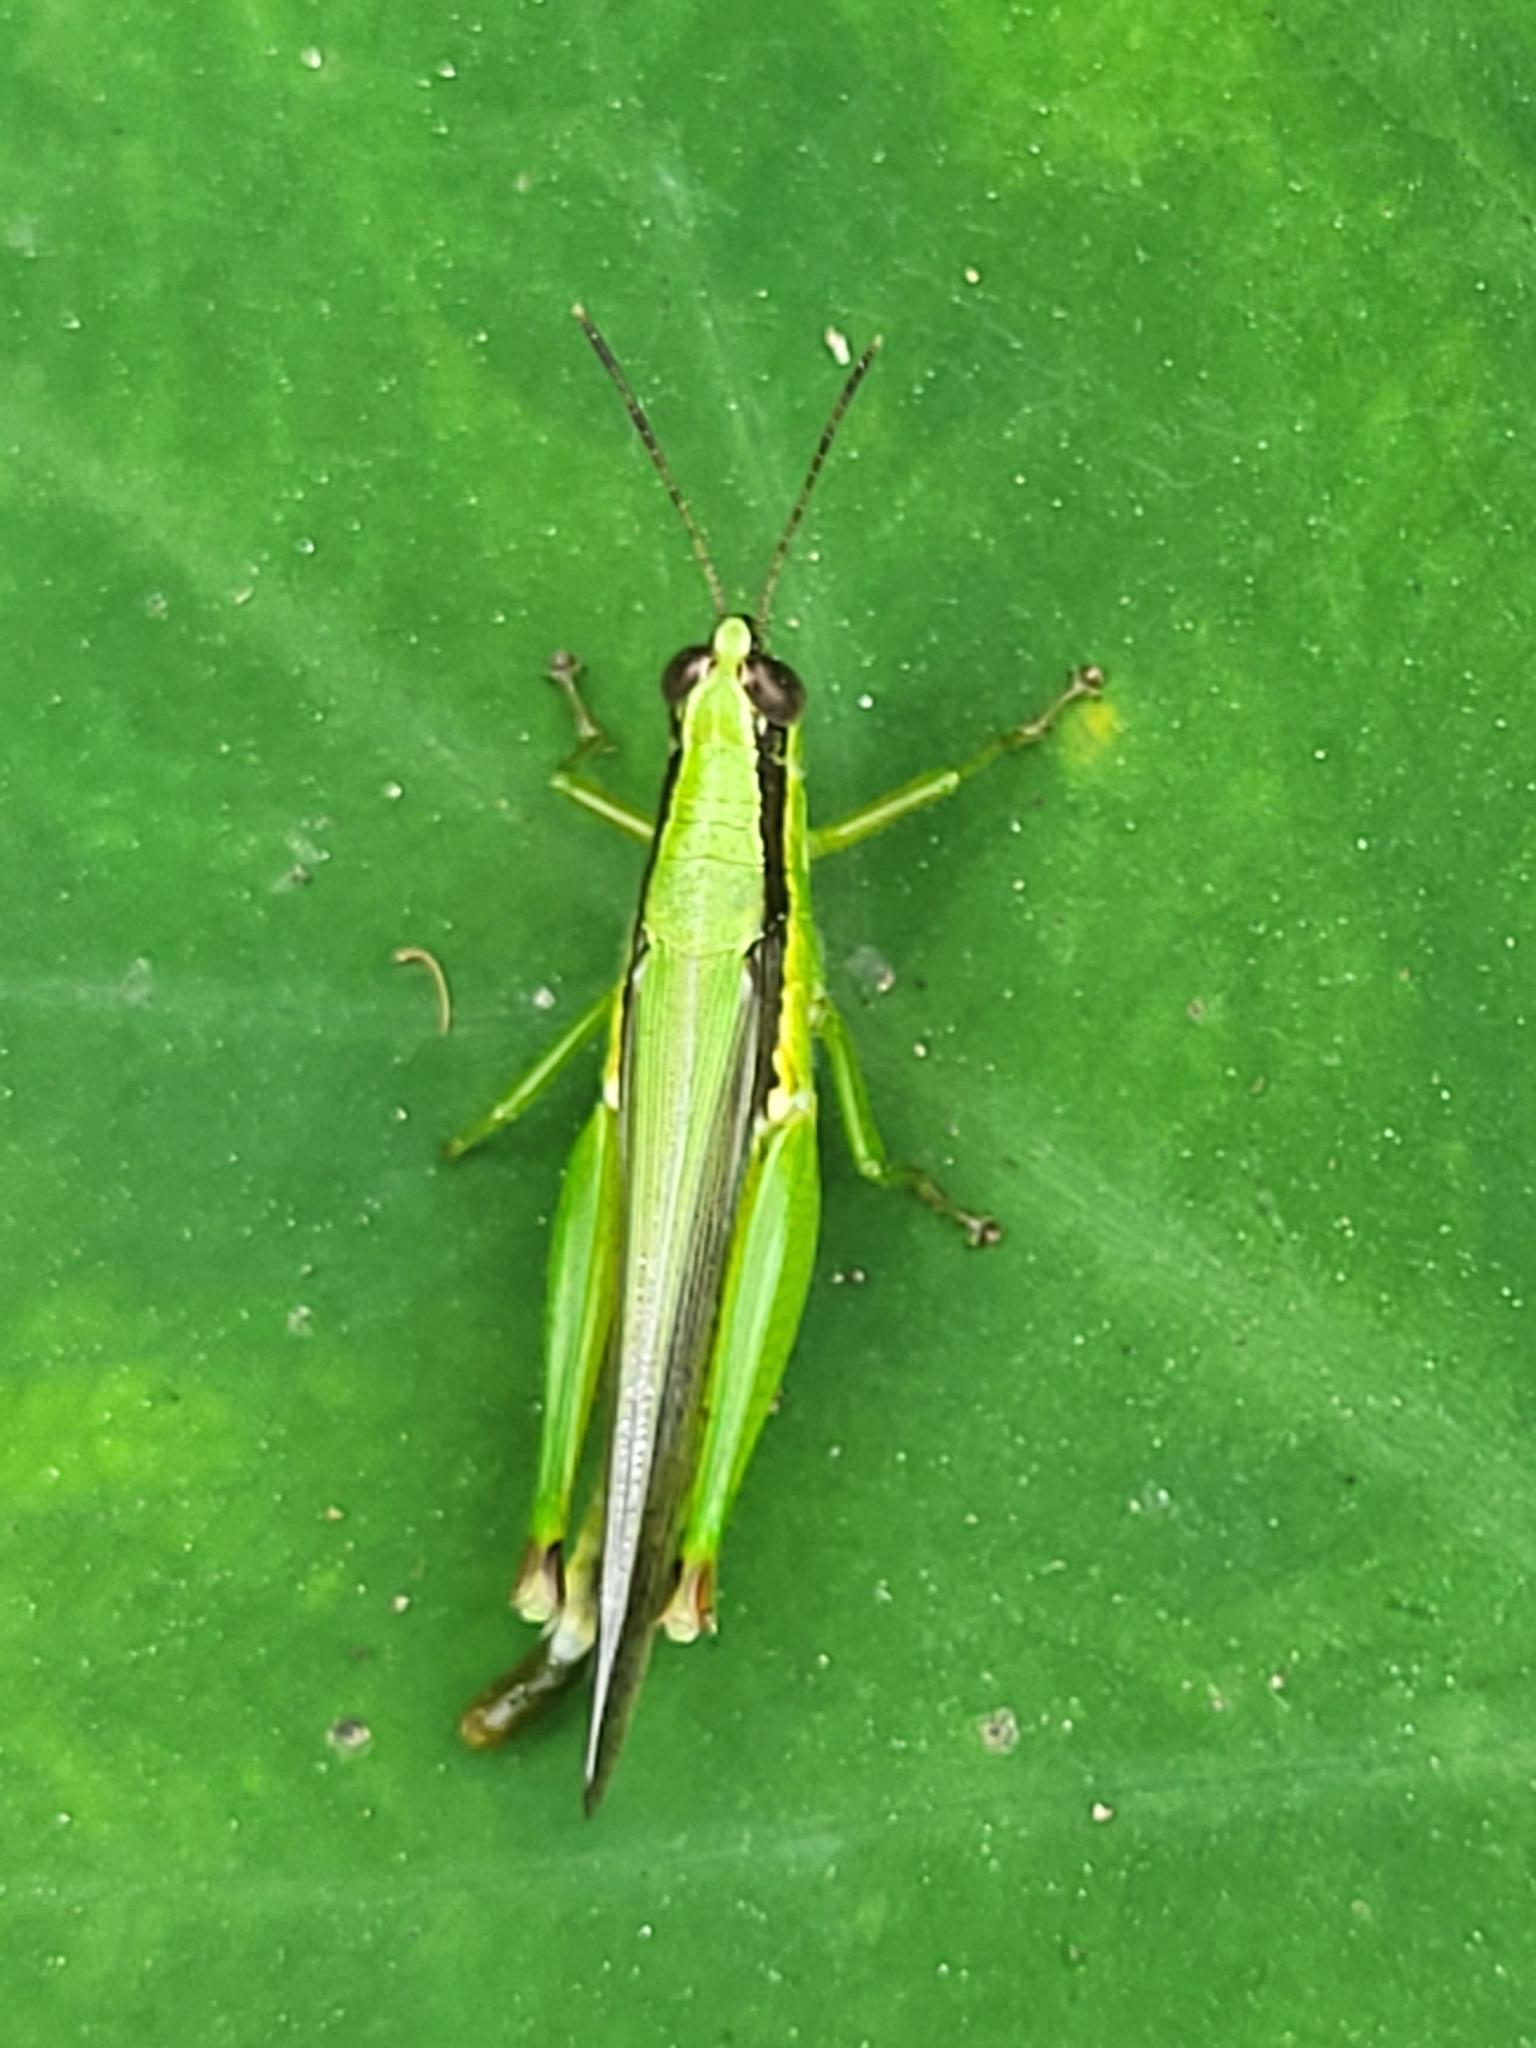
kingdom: Animalia
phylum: Arthropoda
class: Insecta
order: Orthoptera
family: Acrididae
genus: Gesonula
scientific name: Gesonula mundata
